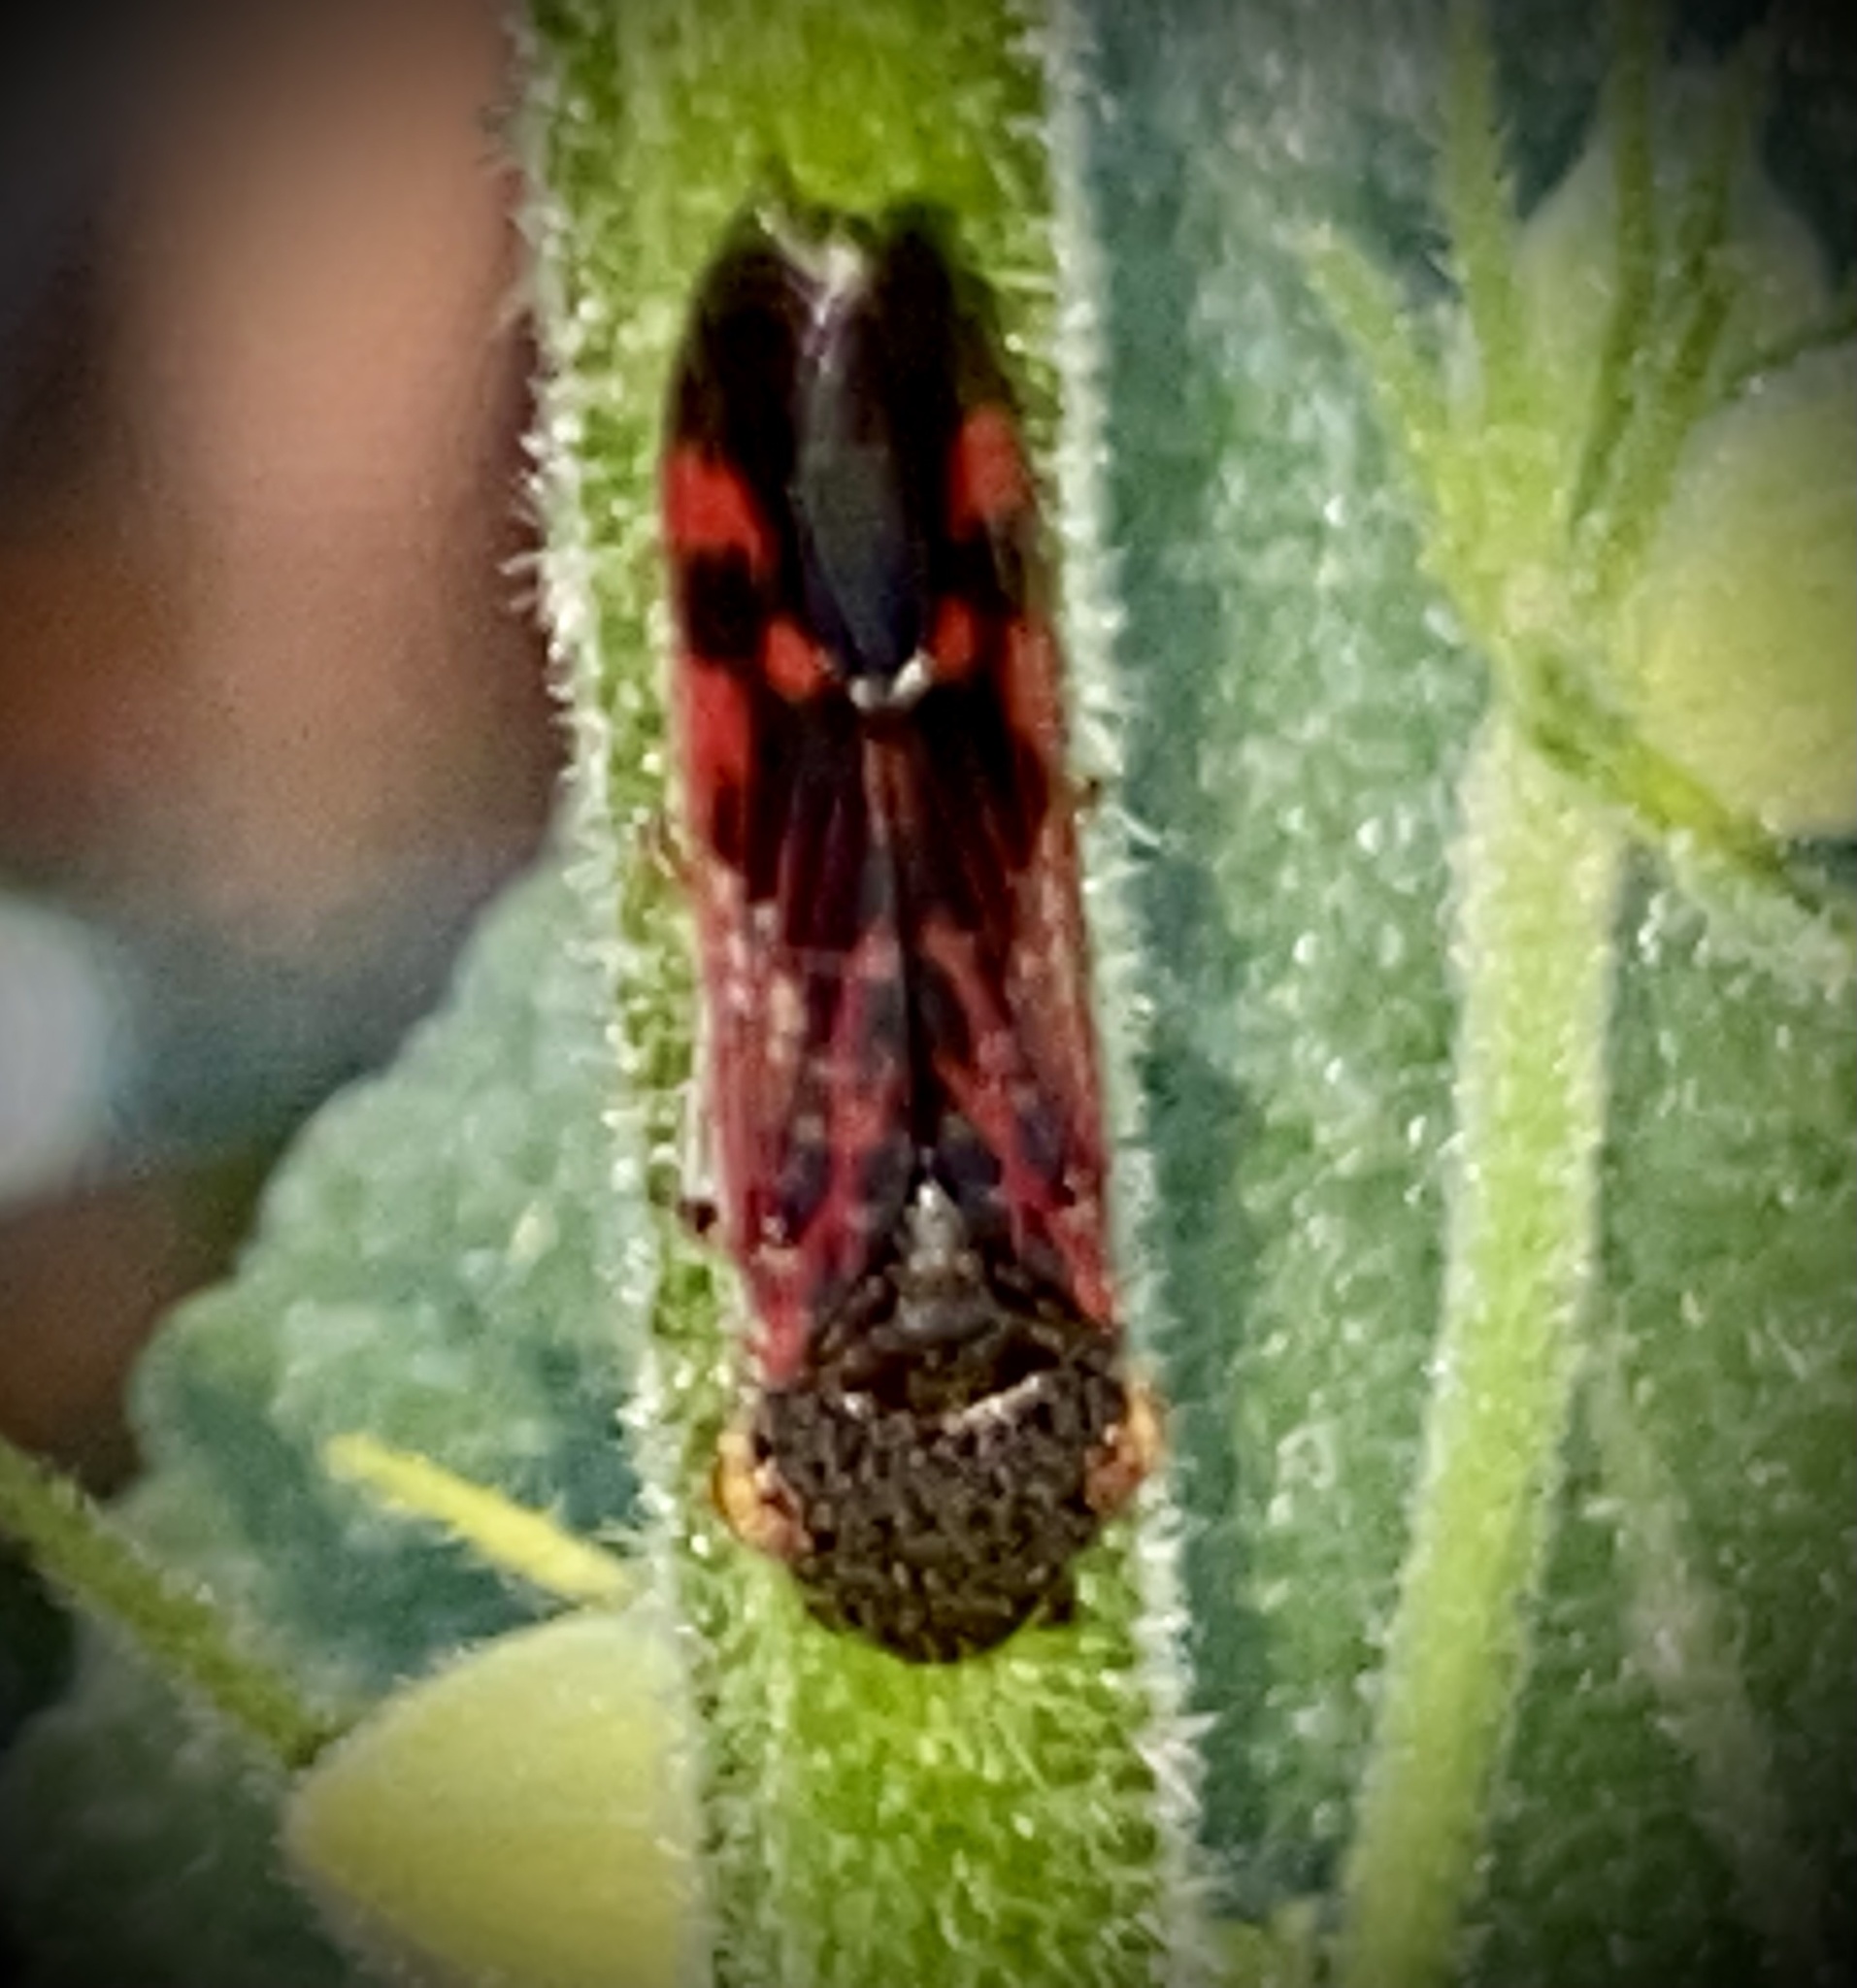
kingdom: Animalia
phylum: Arthropoda
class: Insecta
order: Hemiptera
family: Cicadellidae
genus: Homalodisca
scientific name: Homalodisca vitripennis
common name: Glassy-winged sharpshooter
